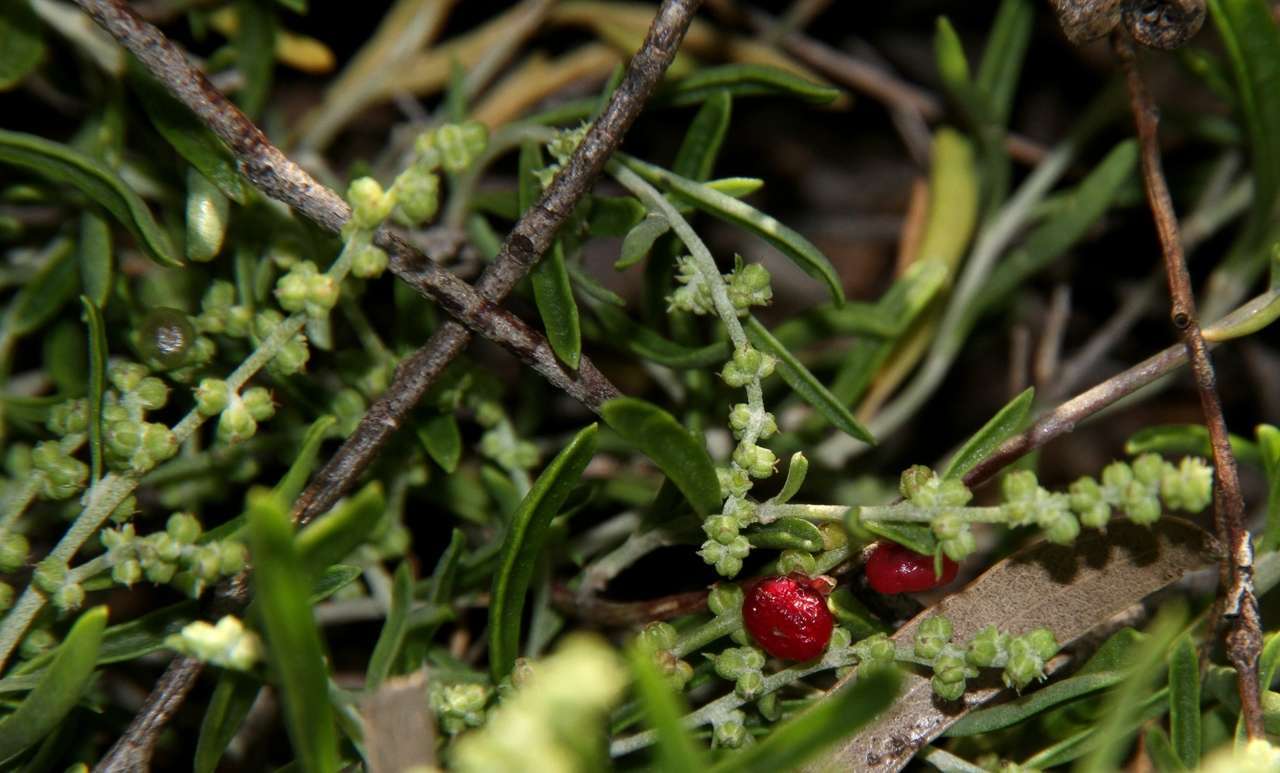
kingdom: Plantae
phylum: Tracheophyta
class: Magnoliopsida
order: Caryophyllales
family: Amaranthaceae
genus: Chenopodium
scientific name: Chenopodium wilsonii
